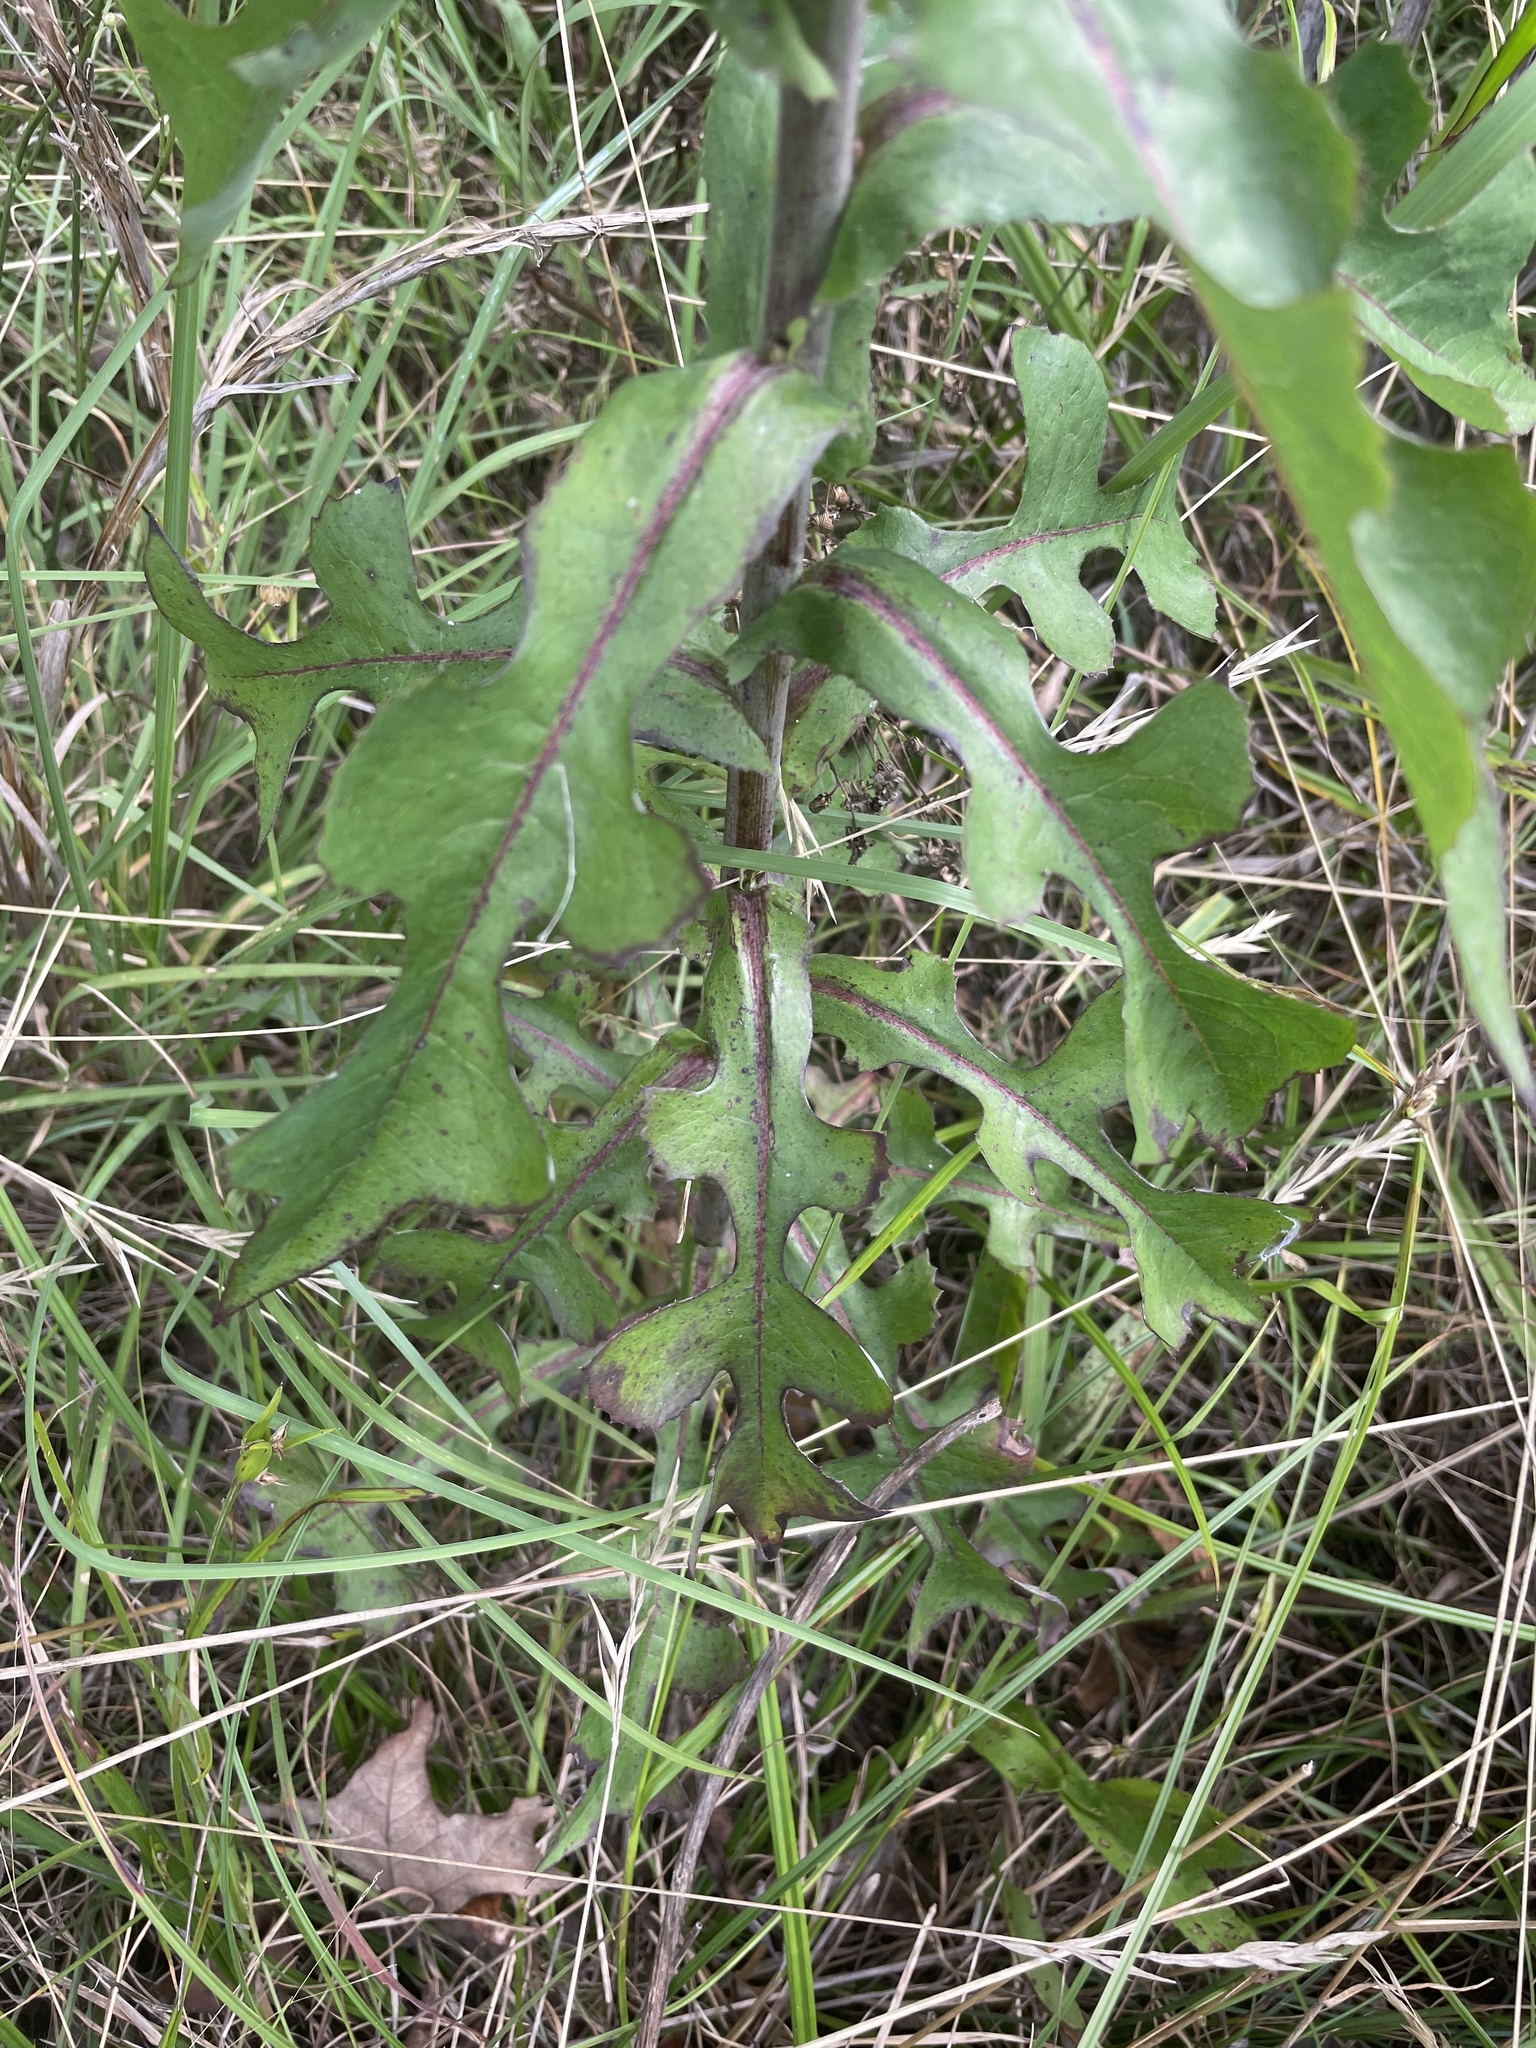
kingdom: Plantae
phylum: Tracheophyta
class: Magnoliopsida
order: Asterales
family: Asteraceae
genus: Lactuca
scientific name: Lactuca canadensis
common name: Canada lettuce
